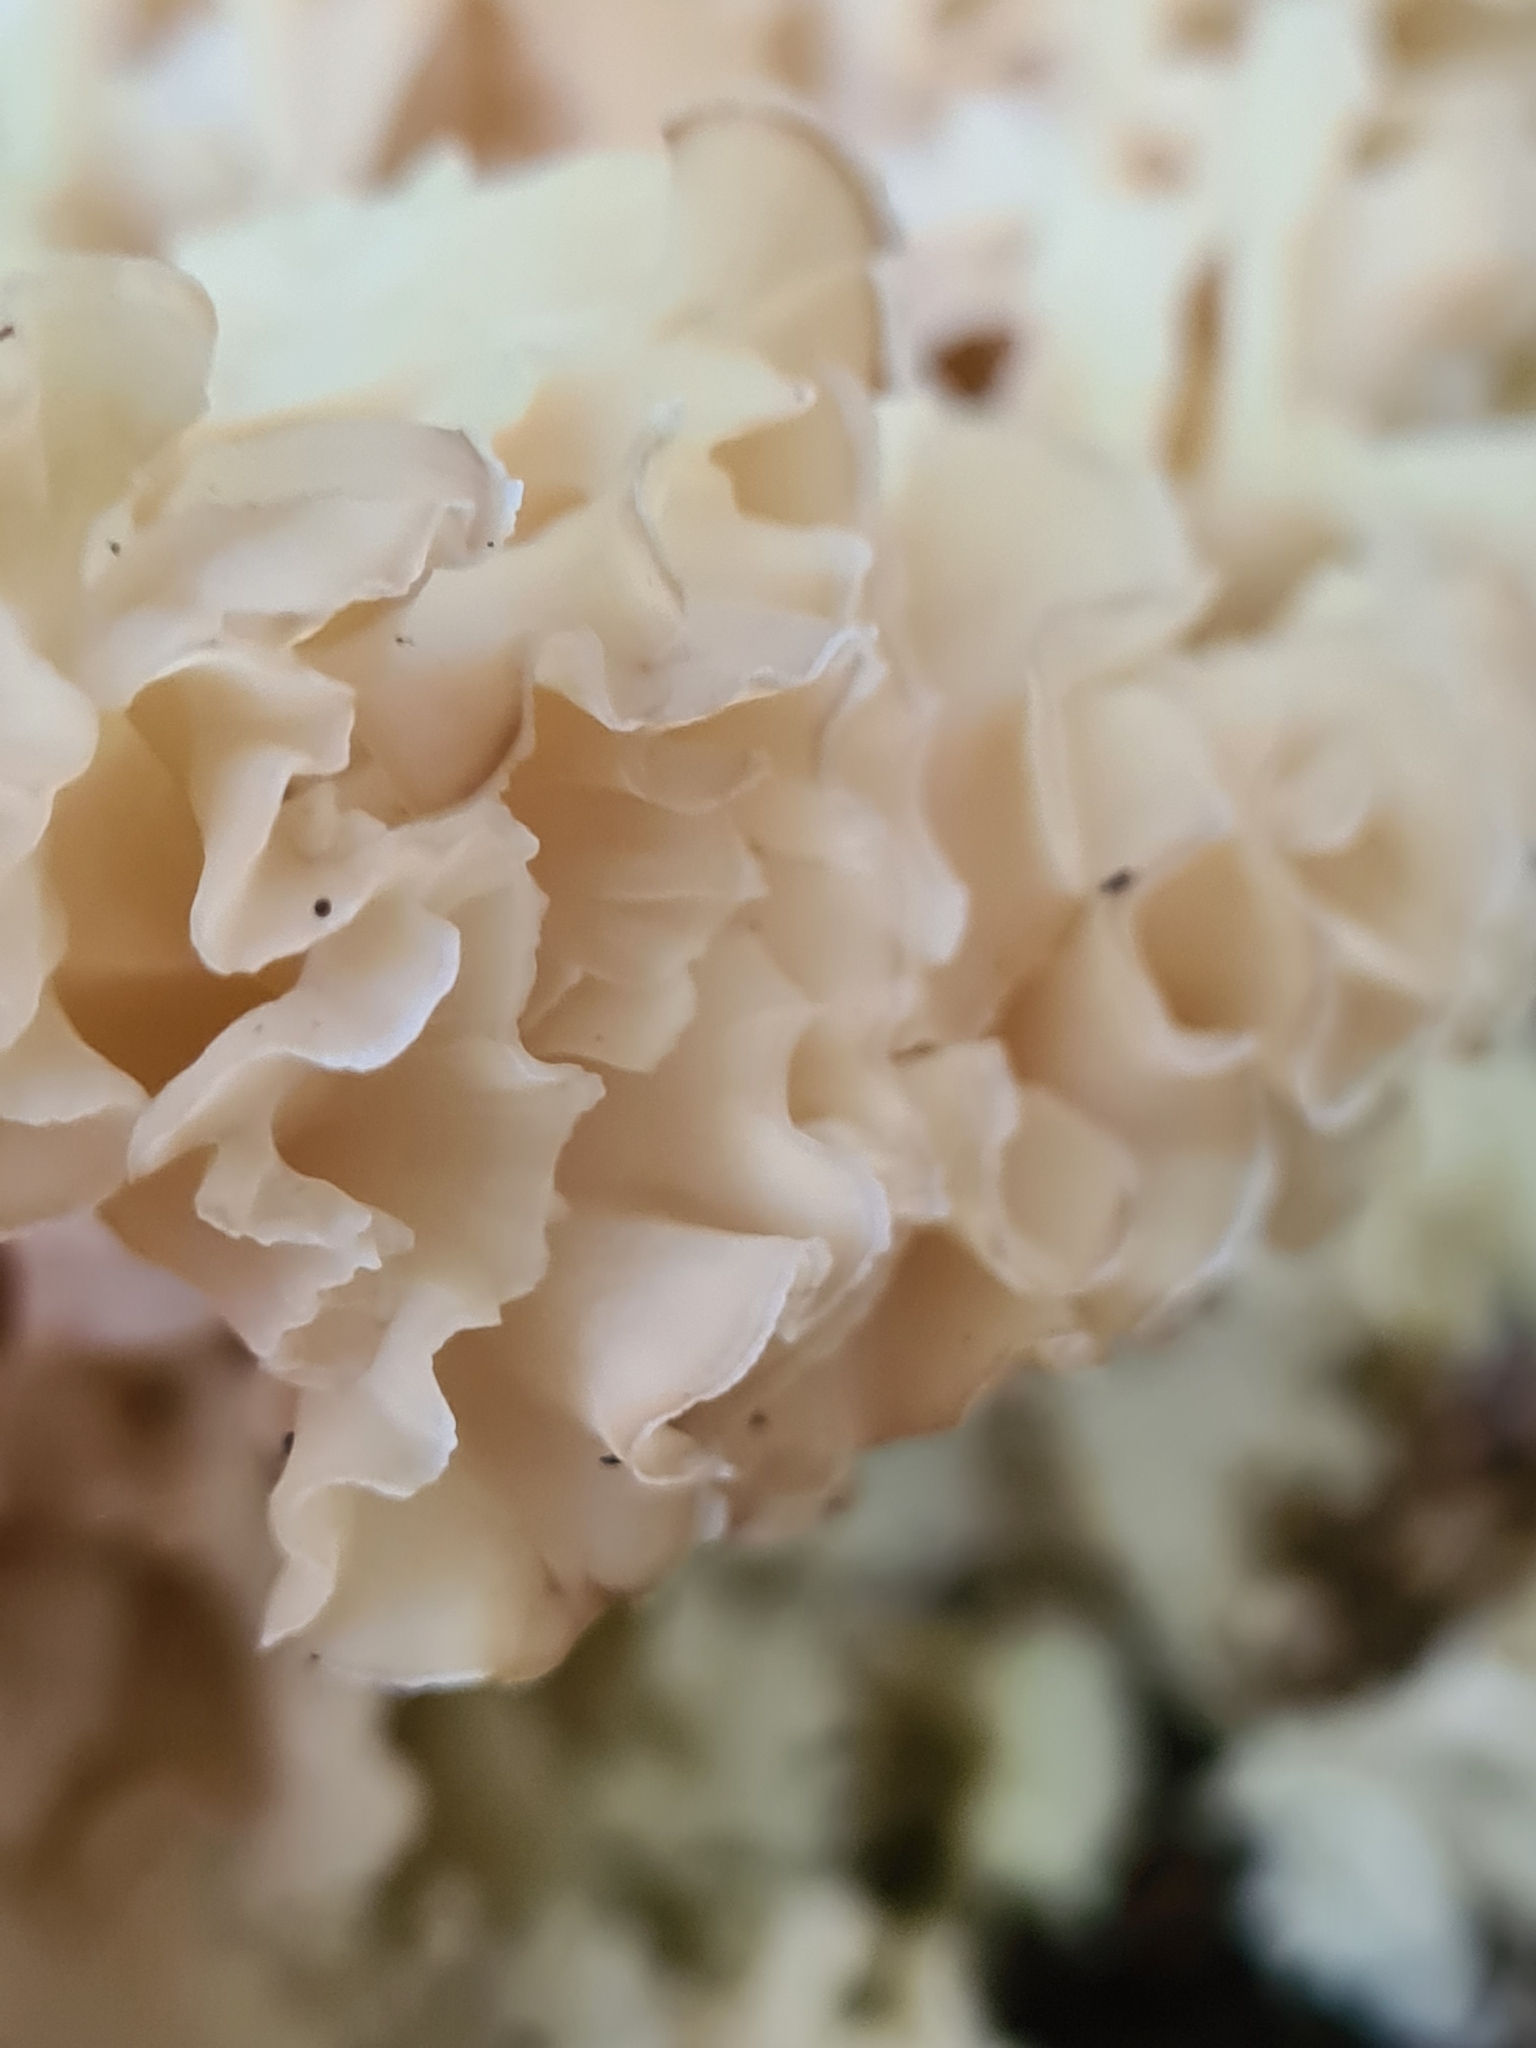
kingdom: Fungi
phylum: Basidiomycota
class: Agaricomycetes
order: Polyporales
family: Sparassidaceae
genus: Sparassis
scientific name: Sparassis crispa
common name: Brain fungus
